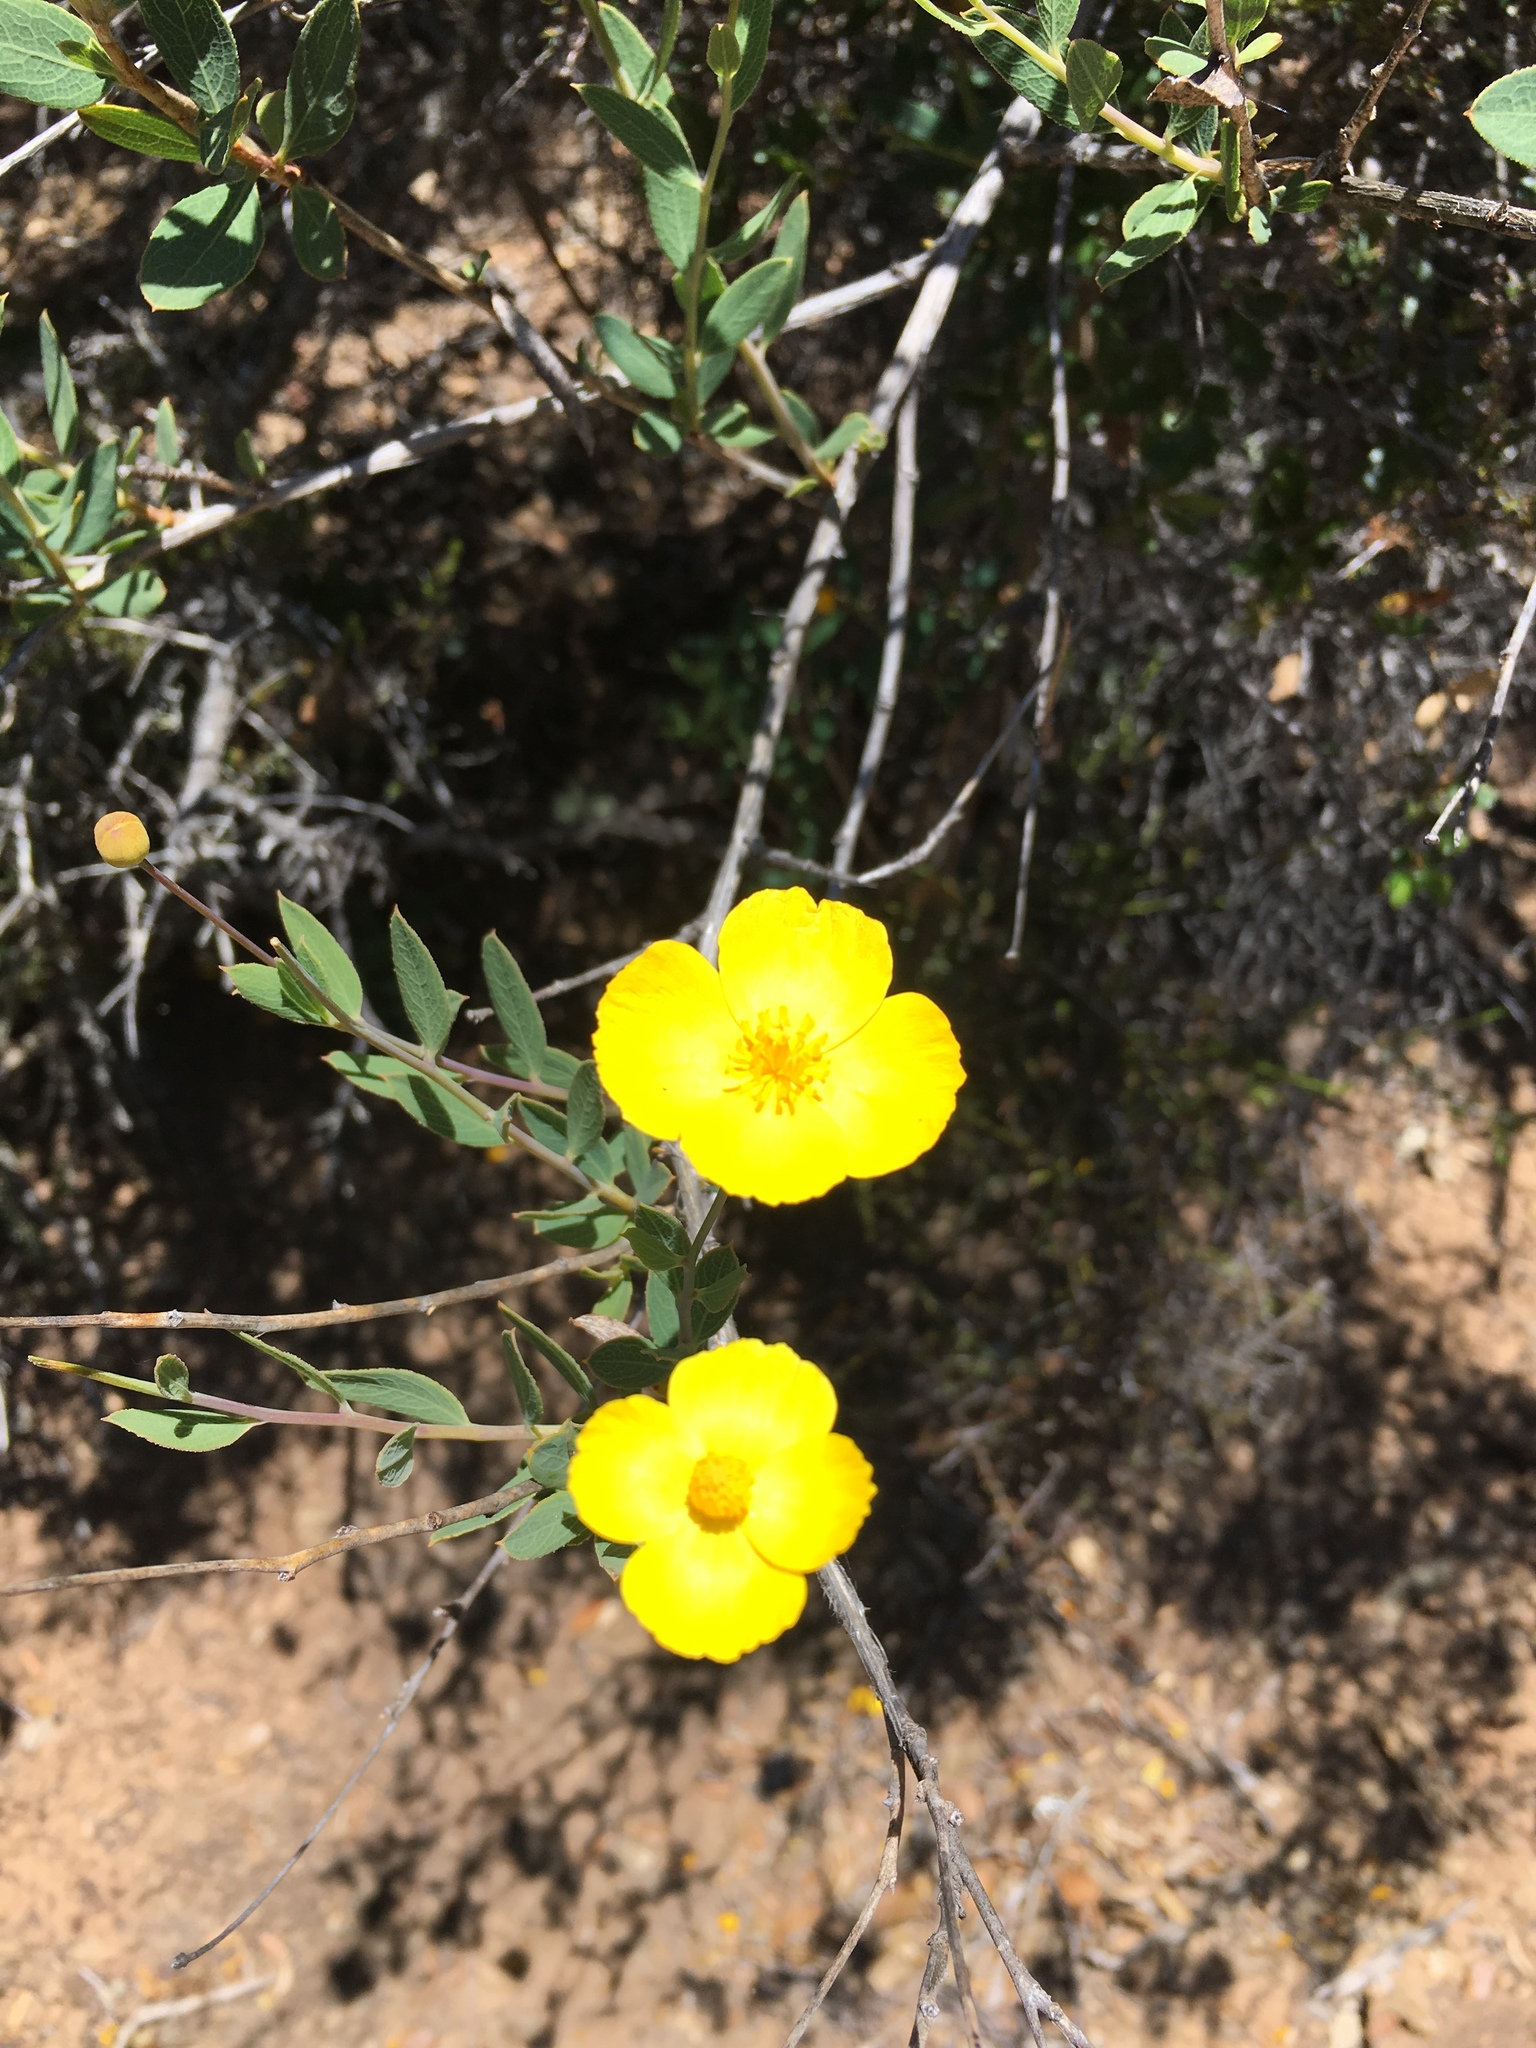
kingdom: Plantae
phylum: Tracheophyta
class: Magnoliopsida
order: Ranunculales
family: Papaveraceae
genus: Dendromecon
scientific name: Dendromecon rigida
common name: Tree poppy
